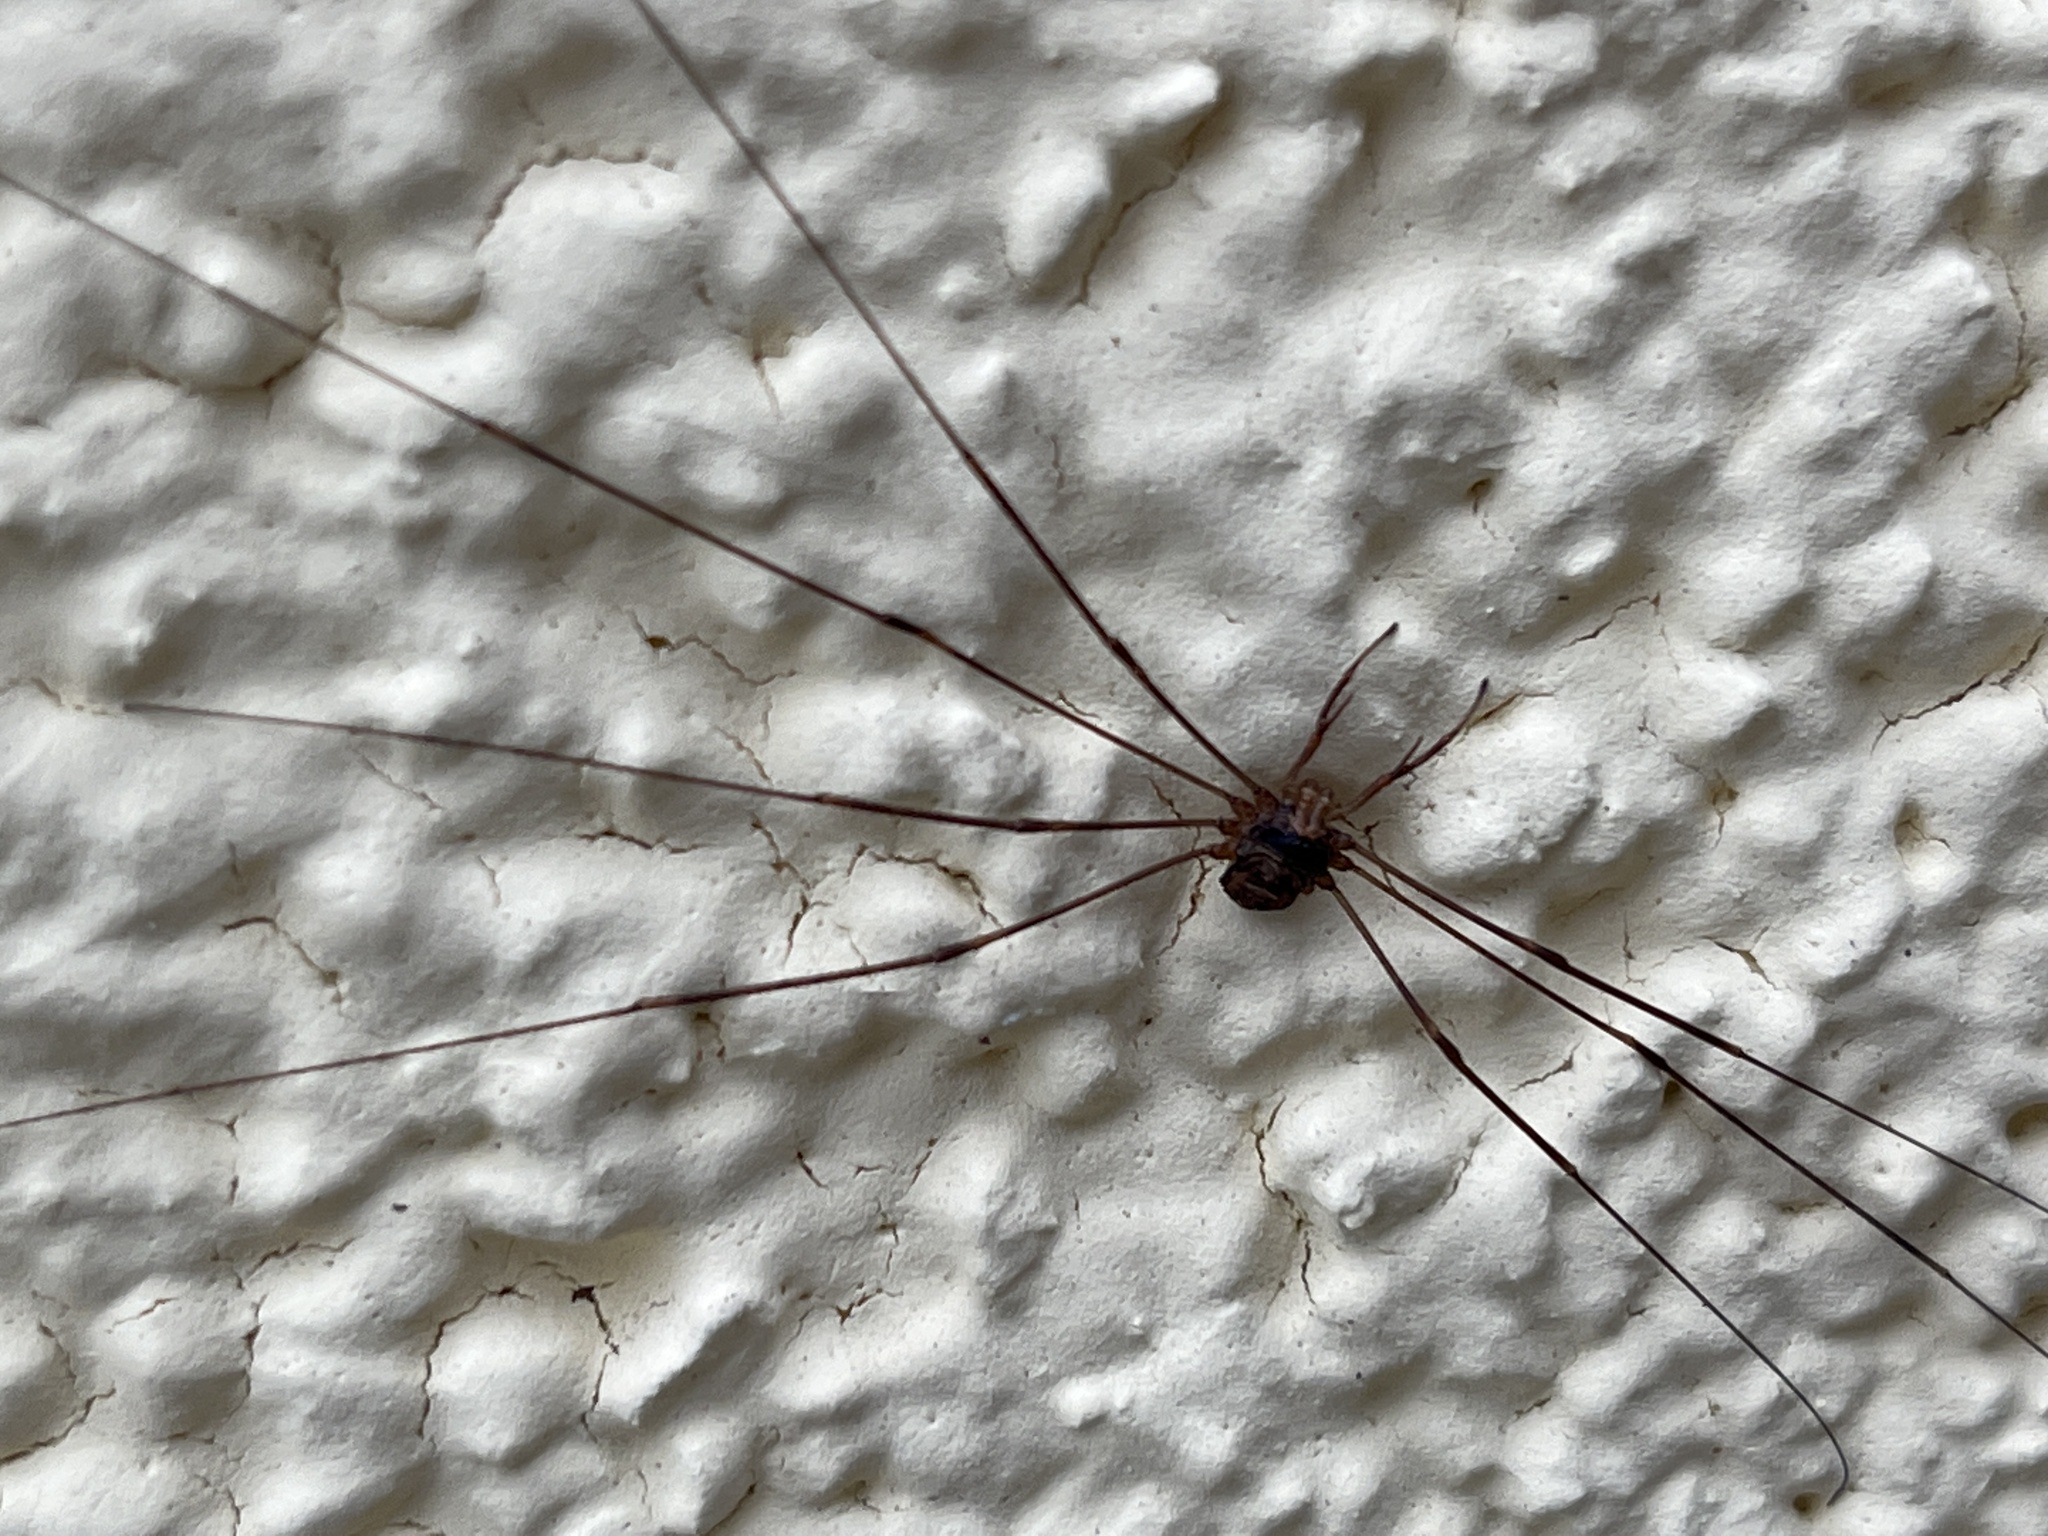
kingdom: Animalia
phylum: Arthropoda
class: Arachnida
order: Opiliones
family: Phalangiidae
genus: Dicranopalpus
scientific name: Dicranopalpus ramosus
